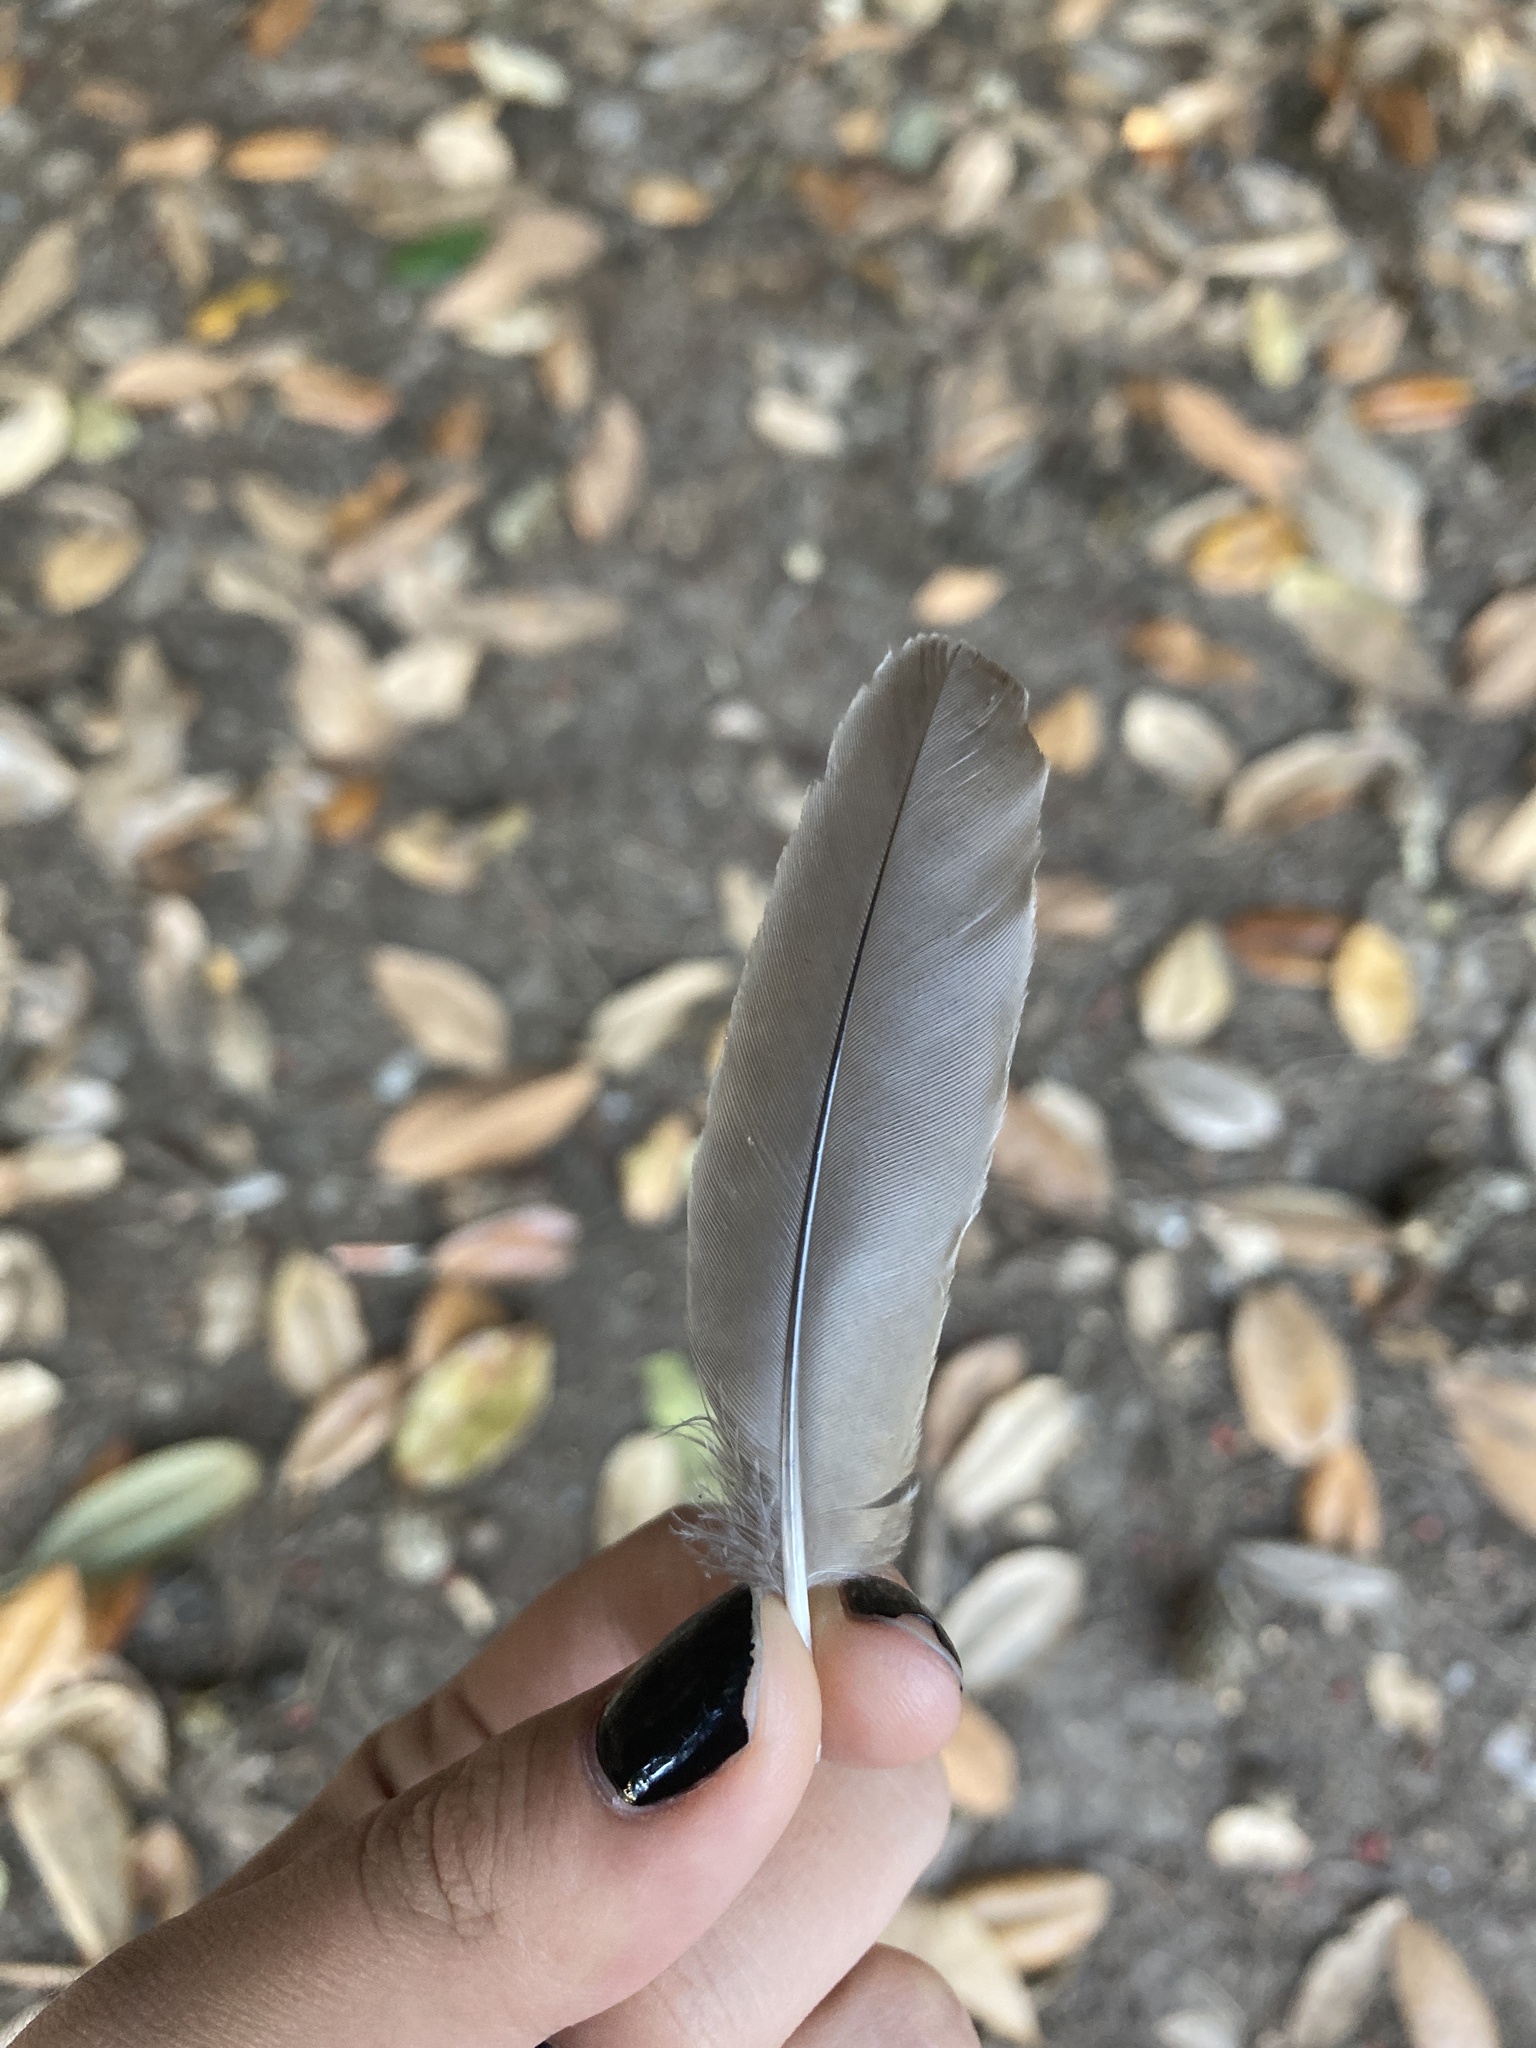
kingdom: Animalia
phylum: Chordata
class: Aves
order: Passeriformes
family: Turdidae
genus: Turdus
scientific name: Turdus migratorius
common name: American robin
